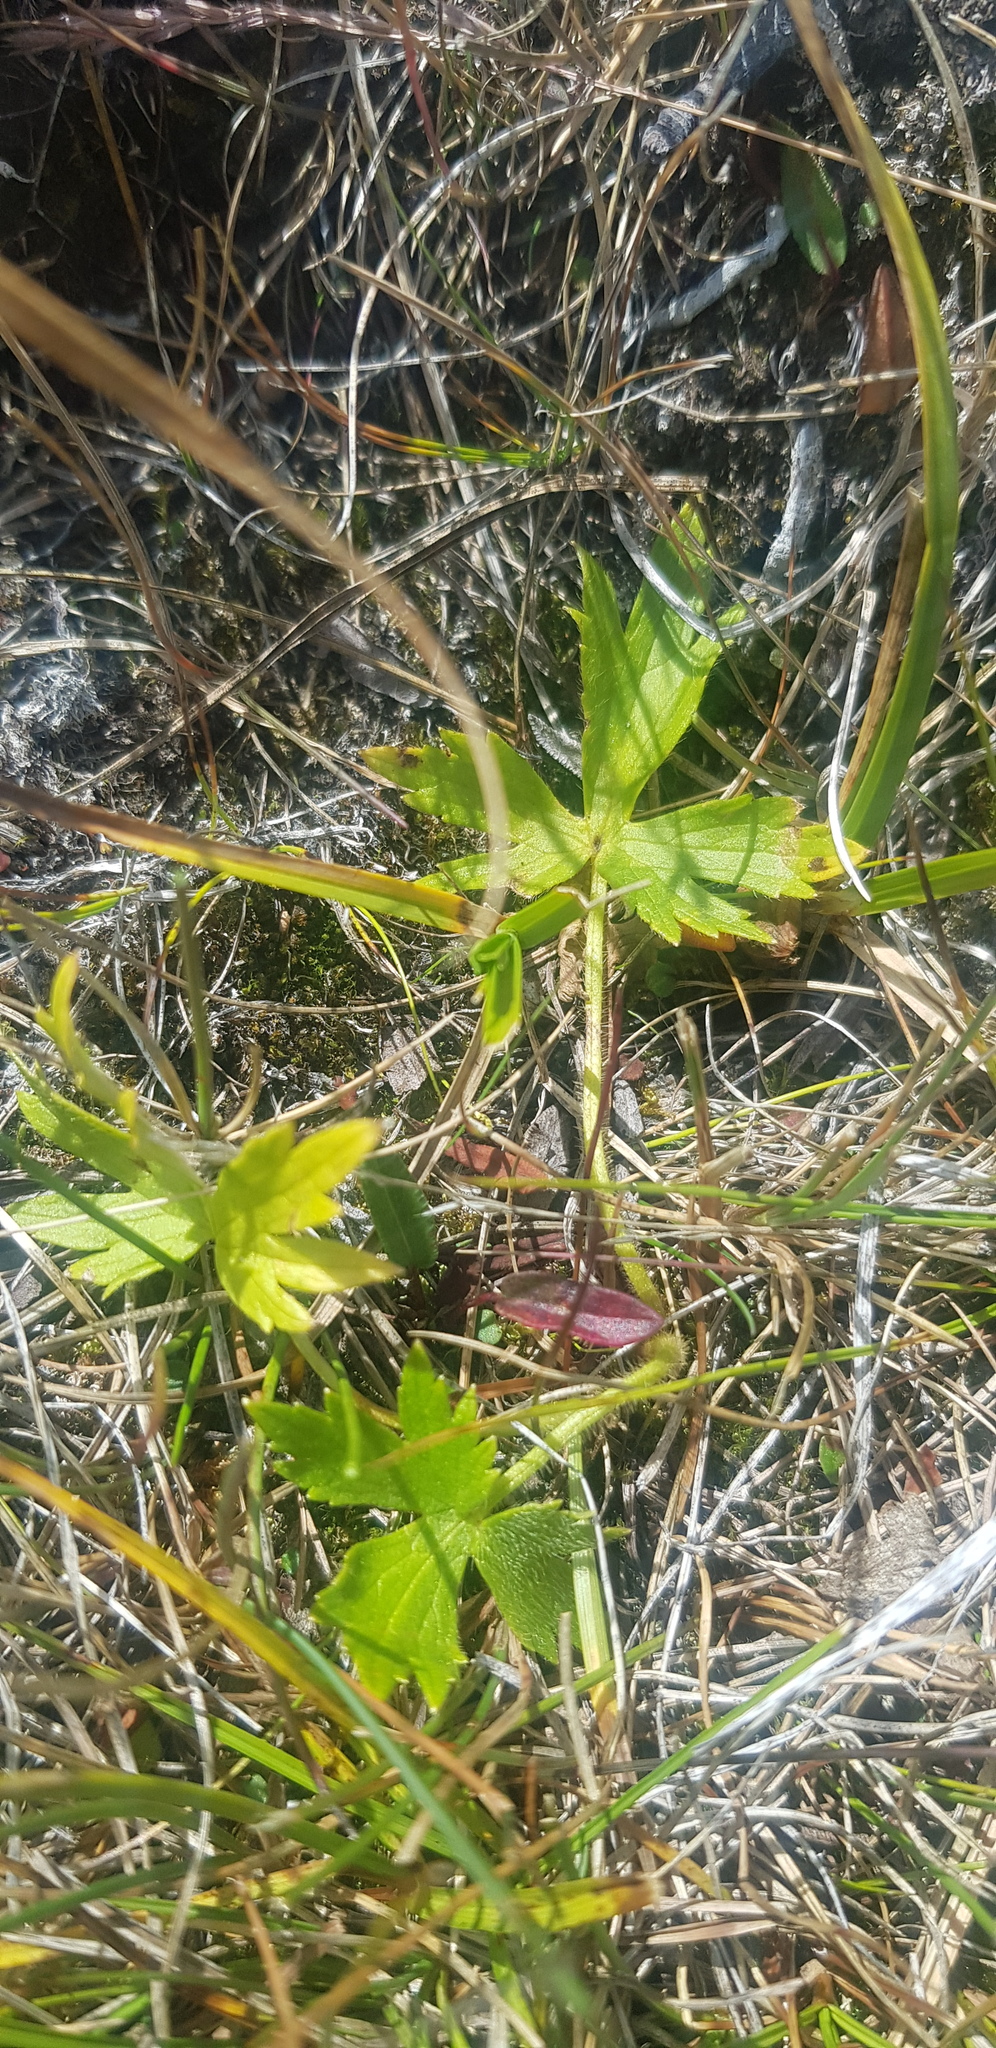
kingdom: Plantae
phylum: Tracheophyta
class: Magnoliopsida
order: Ranunculales
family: Ranunculaceae
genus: Ranunculus
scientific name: Ranunculus propinquus
